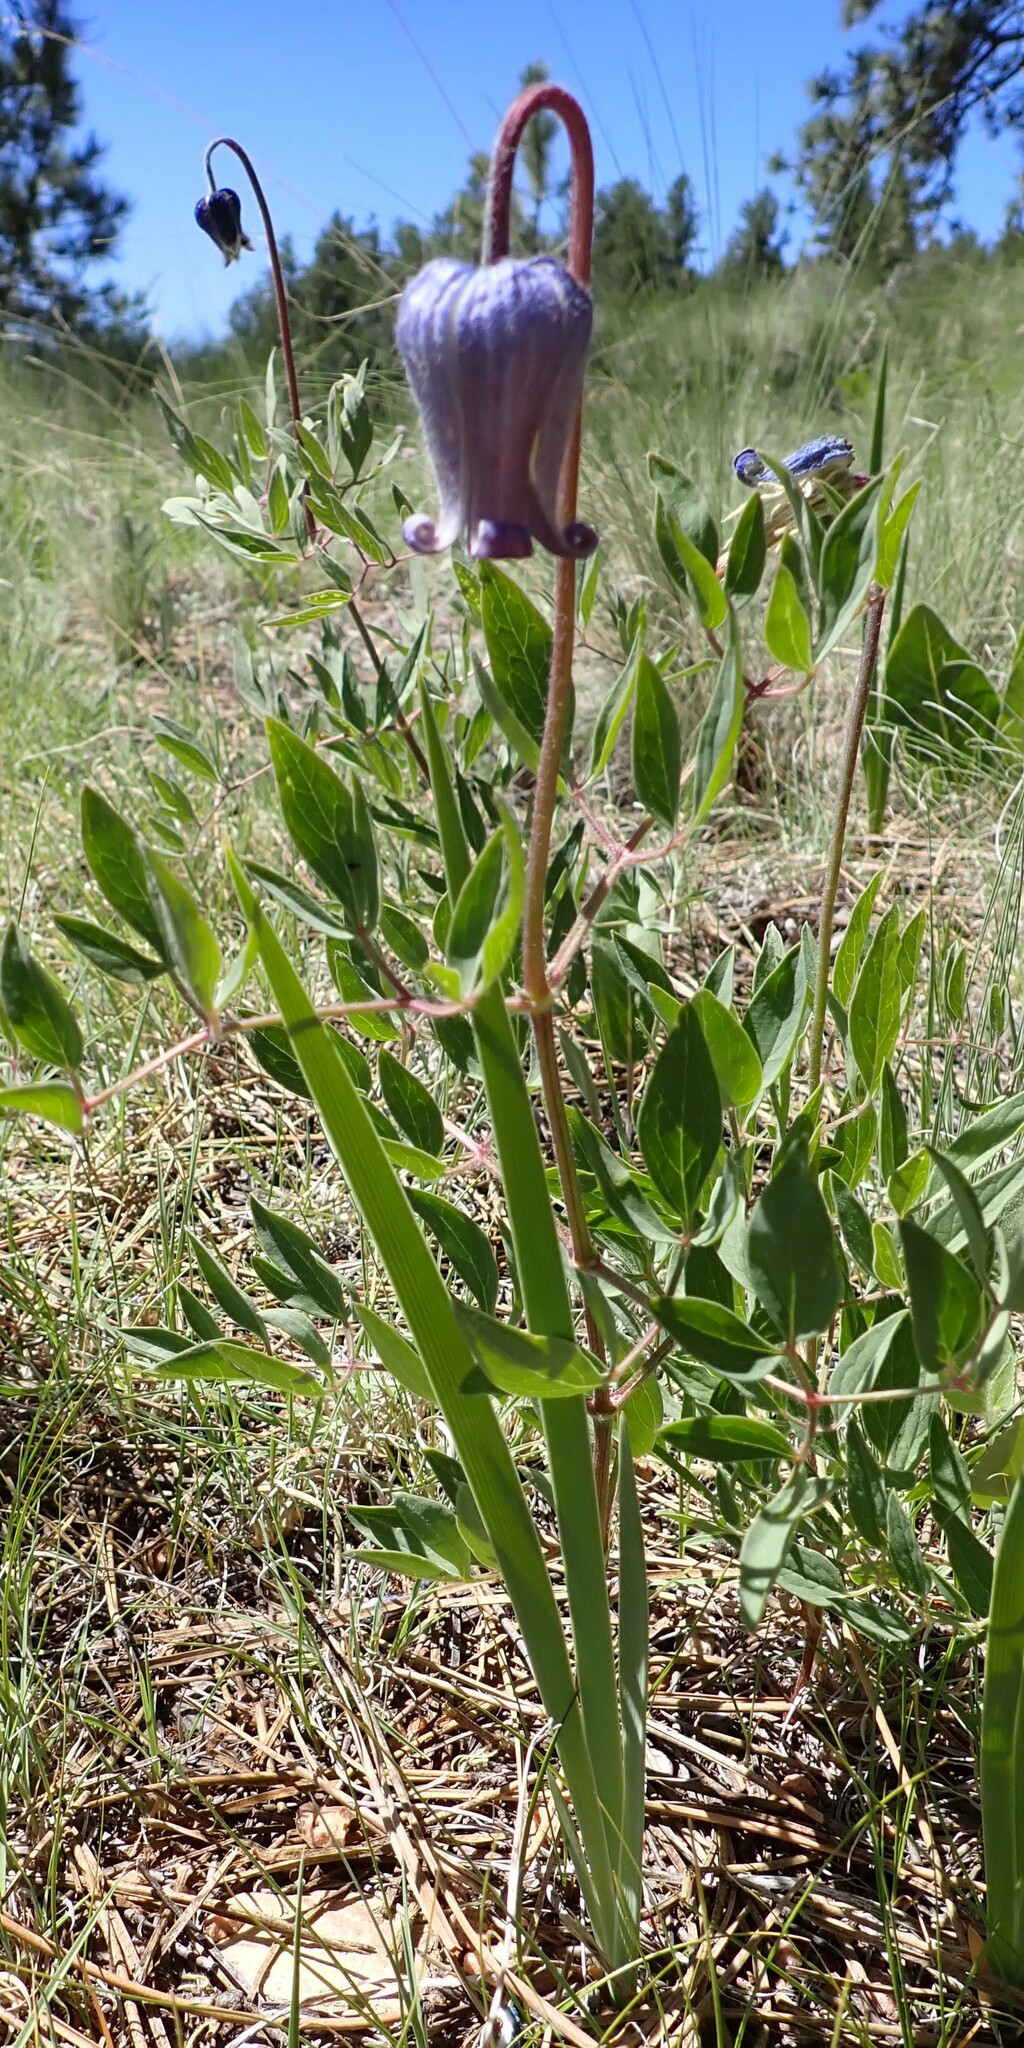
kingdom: Plantae
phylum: Tracheophyta
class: Magnoliopsida
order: Ranunculales
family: Ranunculaceae
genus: Clematis
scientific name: Clematis hirsutissima
